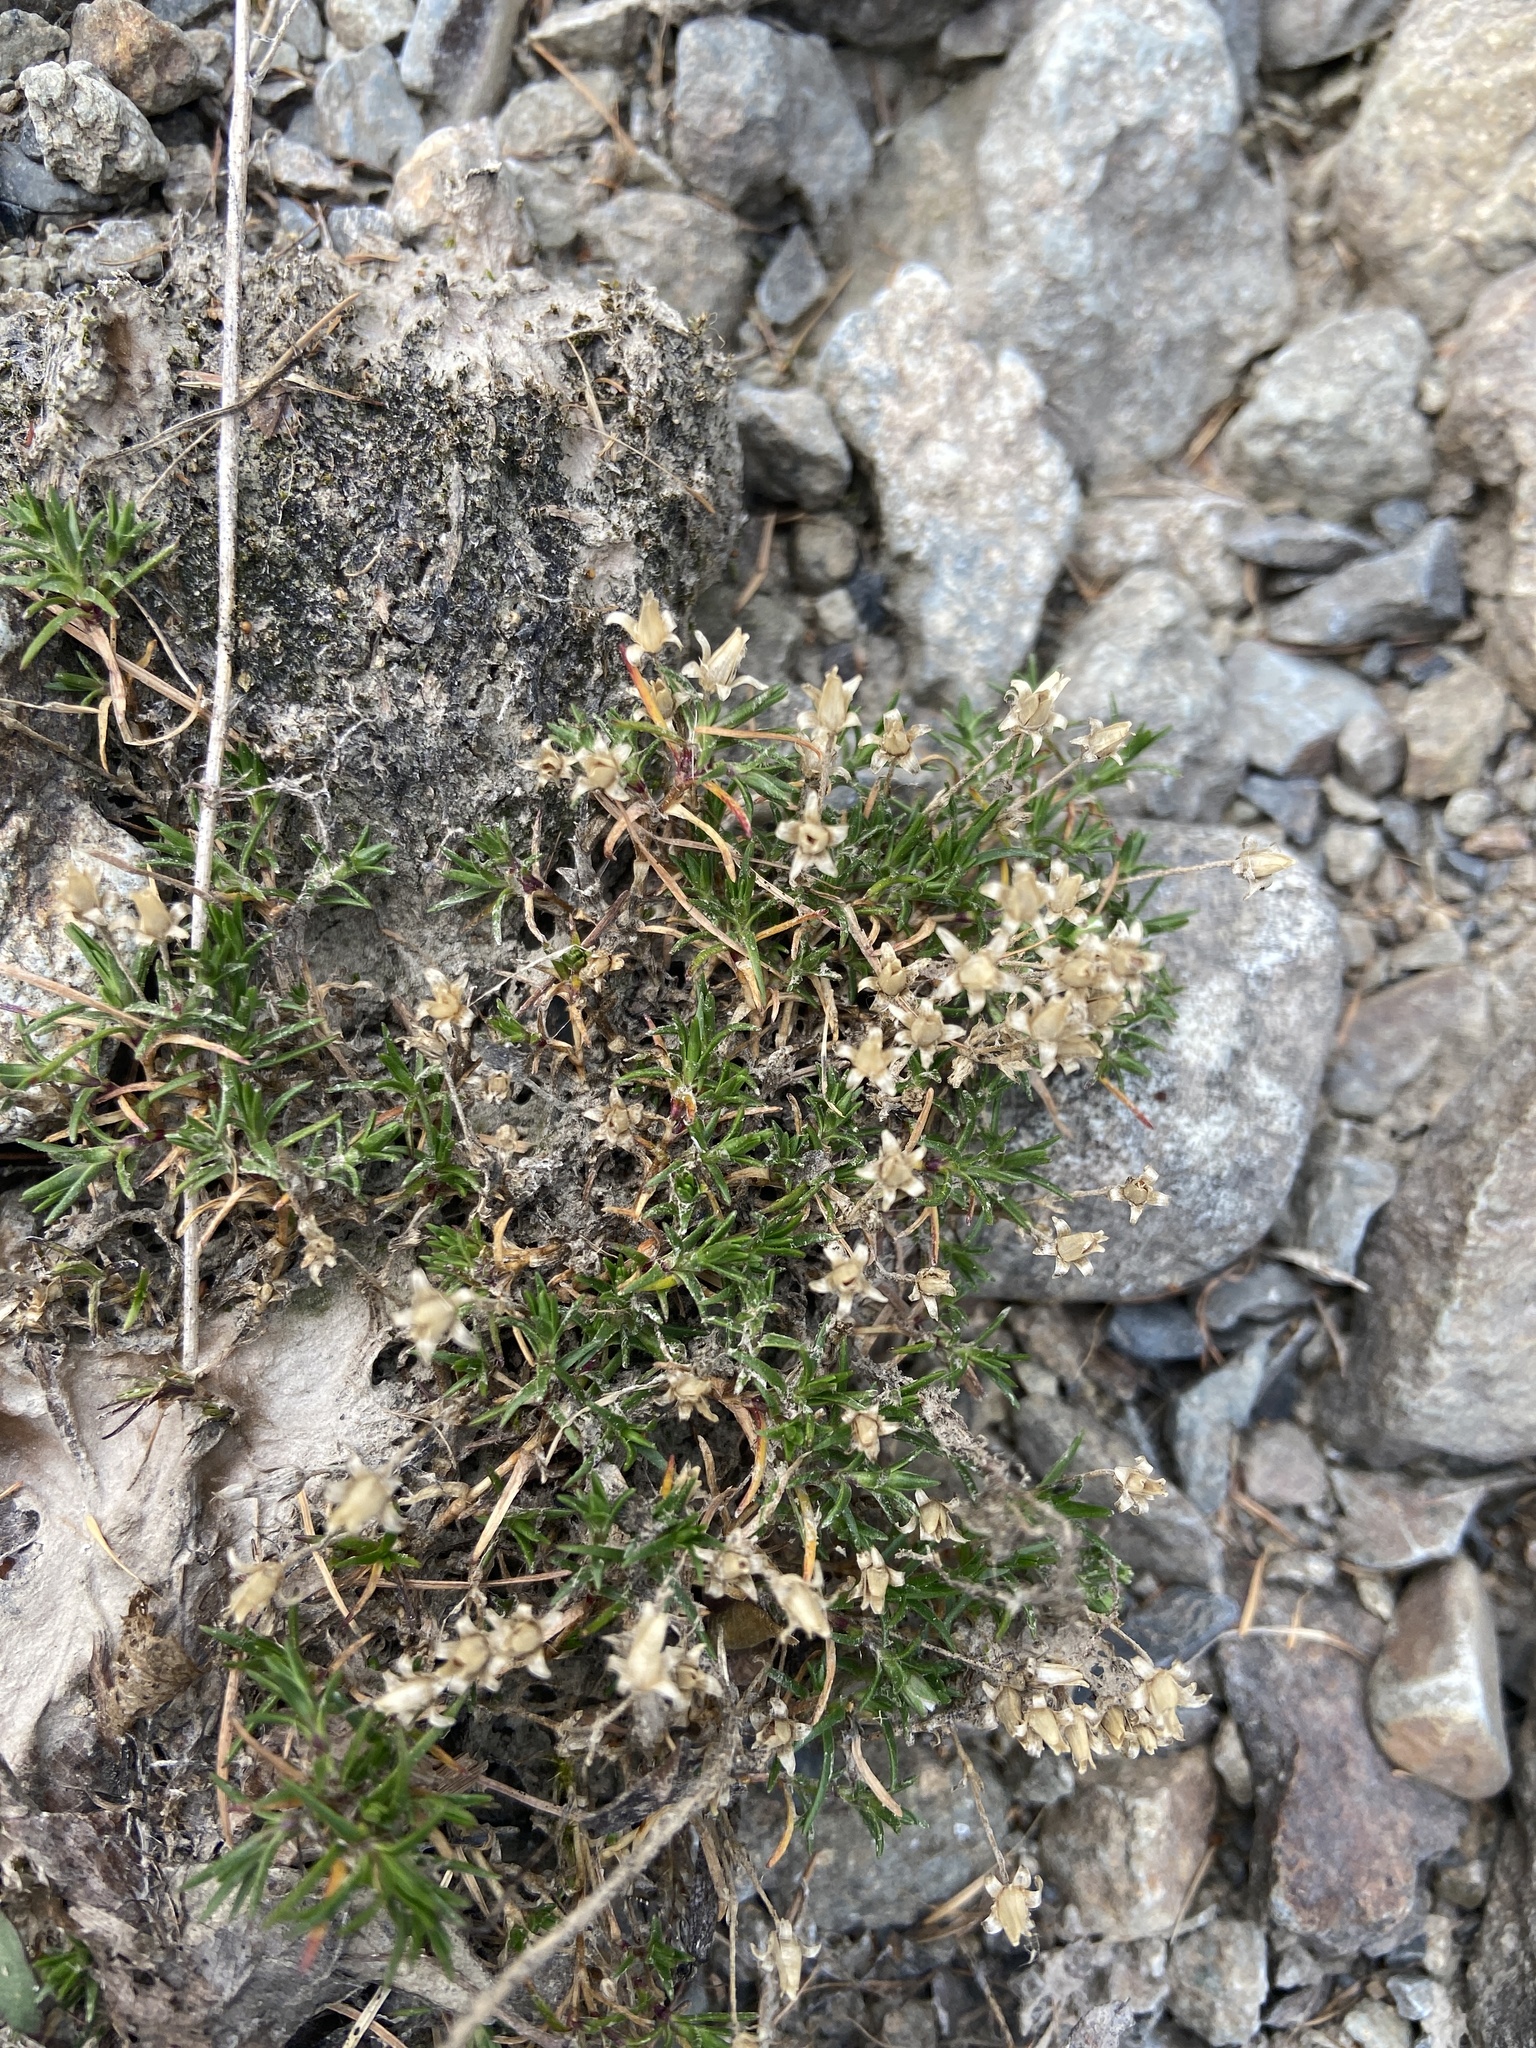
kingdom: Plantae
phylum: Tracheophyta
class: Magnoliopsida
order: Caryophyllales
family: Caryophyllaceae
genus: Cherleria
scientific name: Cherleria biflora
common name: Mountain sandwort
